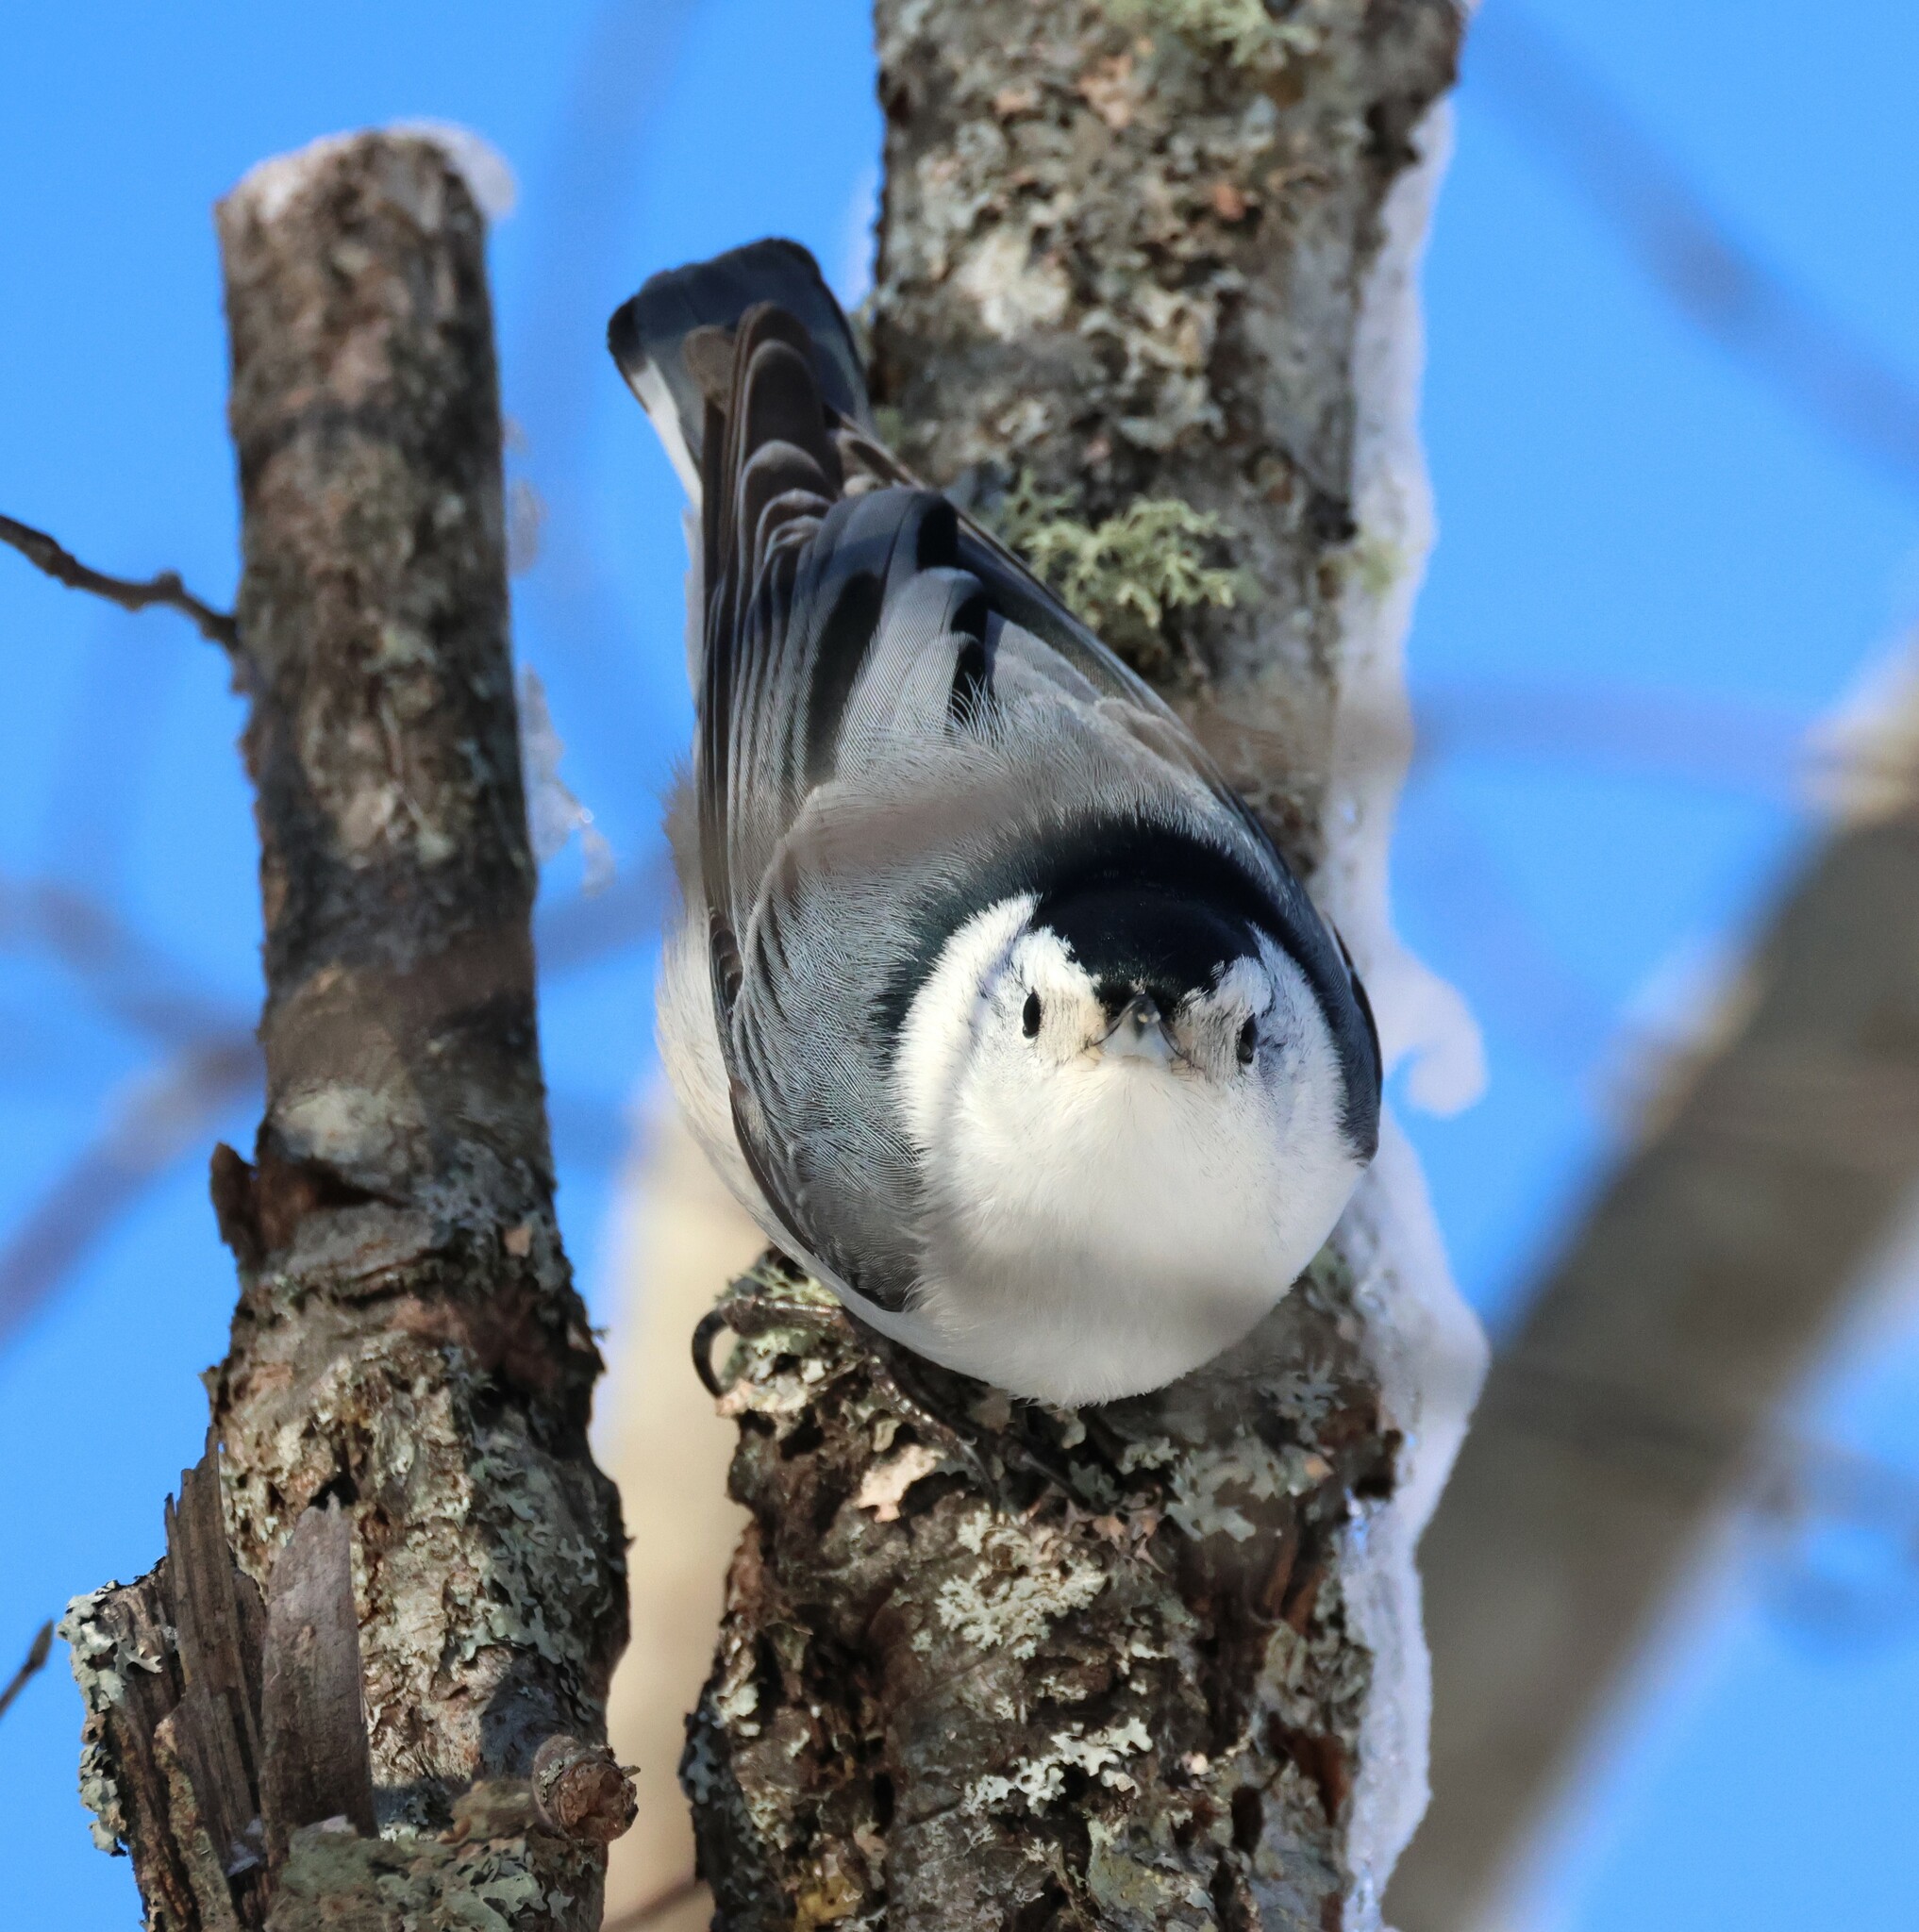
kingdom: Animalia
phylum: Chordata
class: Aves
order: Passeriformes
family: Sittidae
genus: Sitta
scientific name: Sitta carolinensis
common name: White-breasted nuthatch
